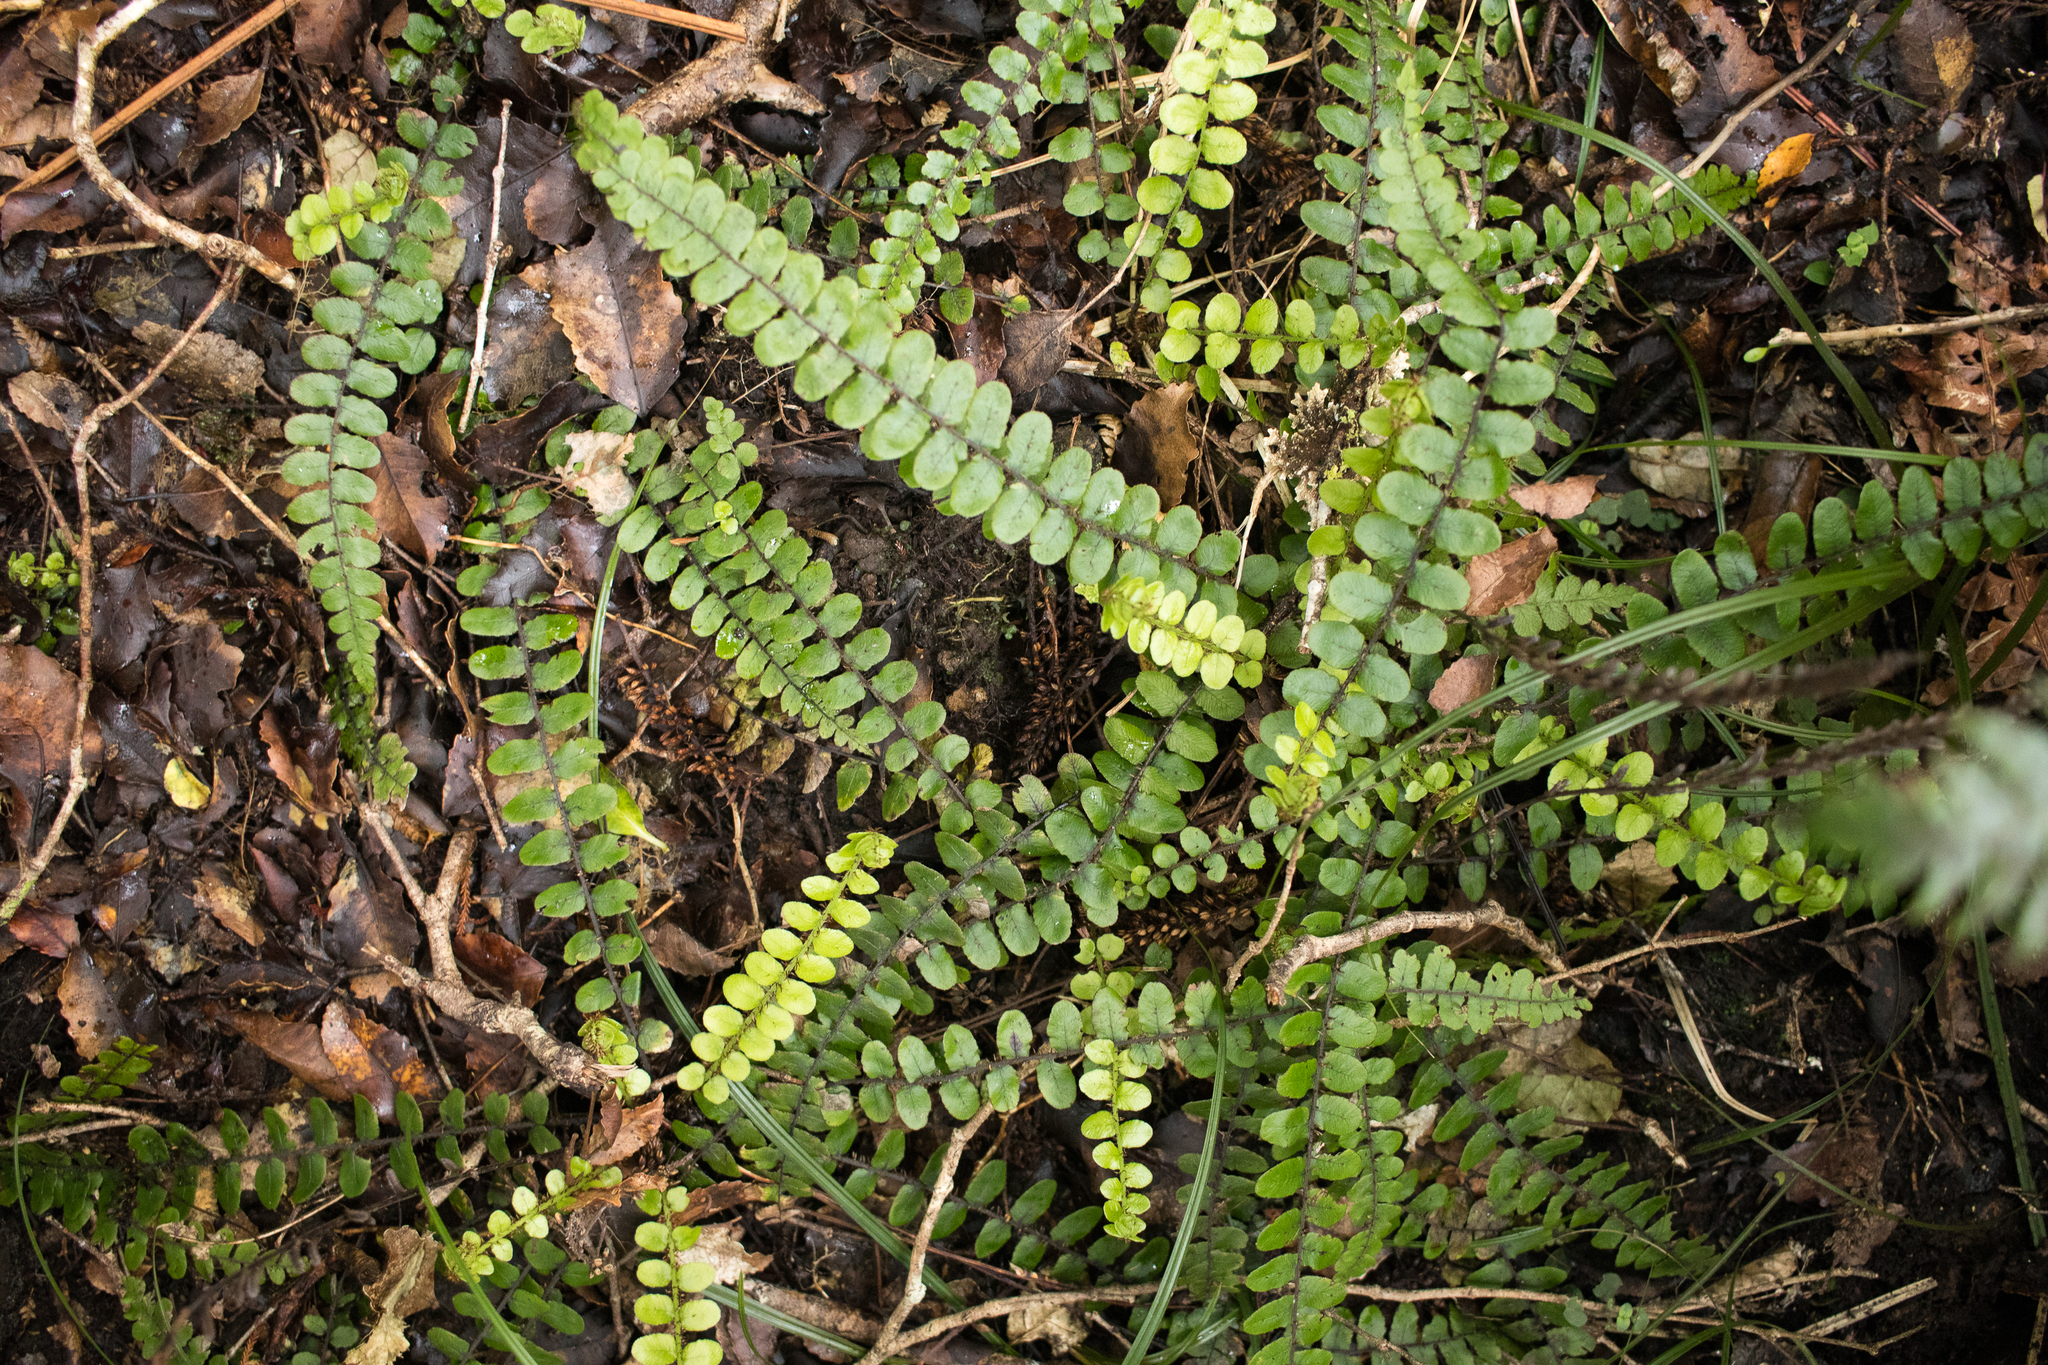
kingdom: Plantae
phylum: Tracheophyta
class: Polypodiopsida
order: Polypodiales
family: Blechnaceae
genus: Cranfillia
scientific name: Cranfillia fluviatilis
